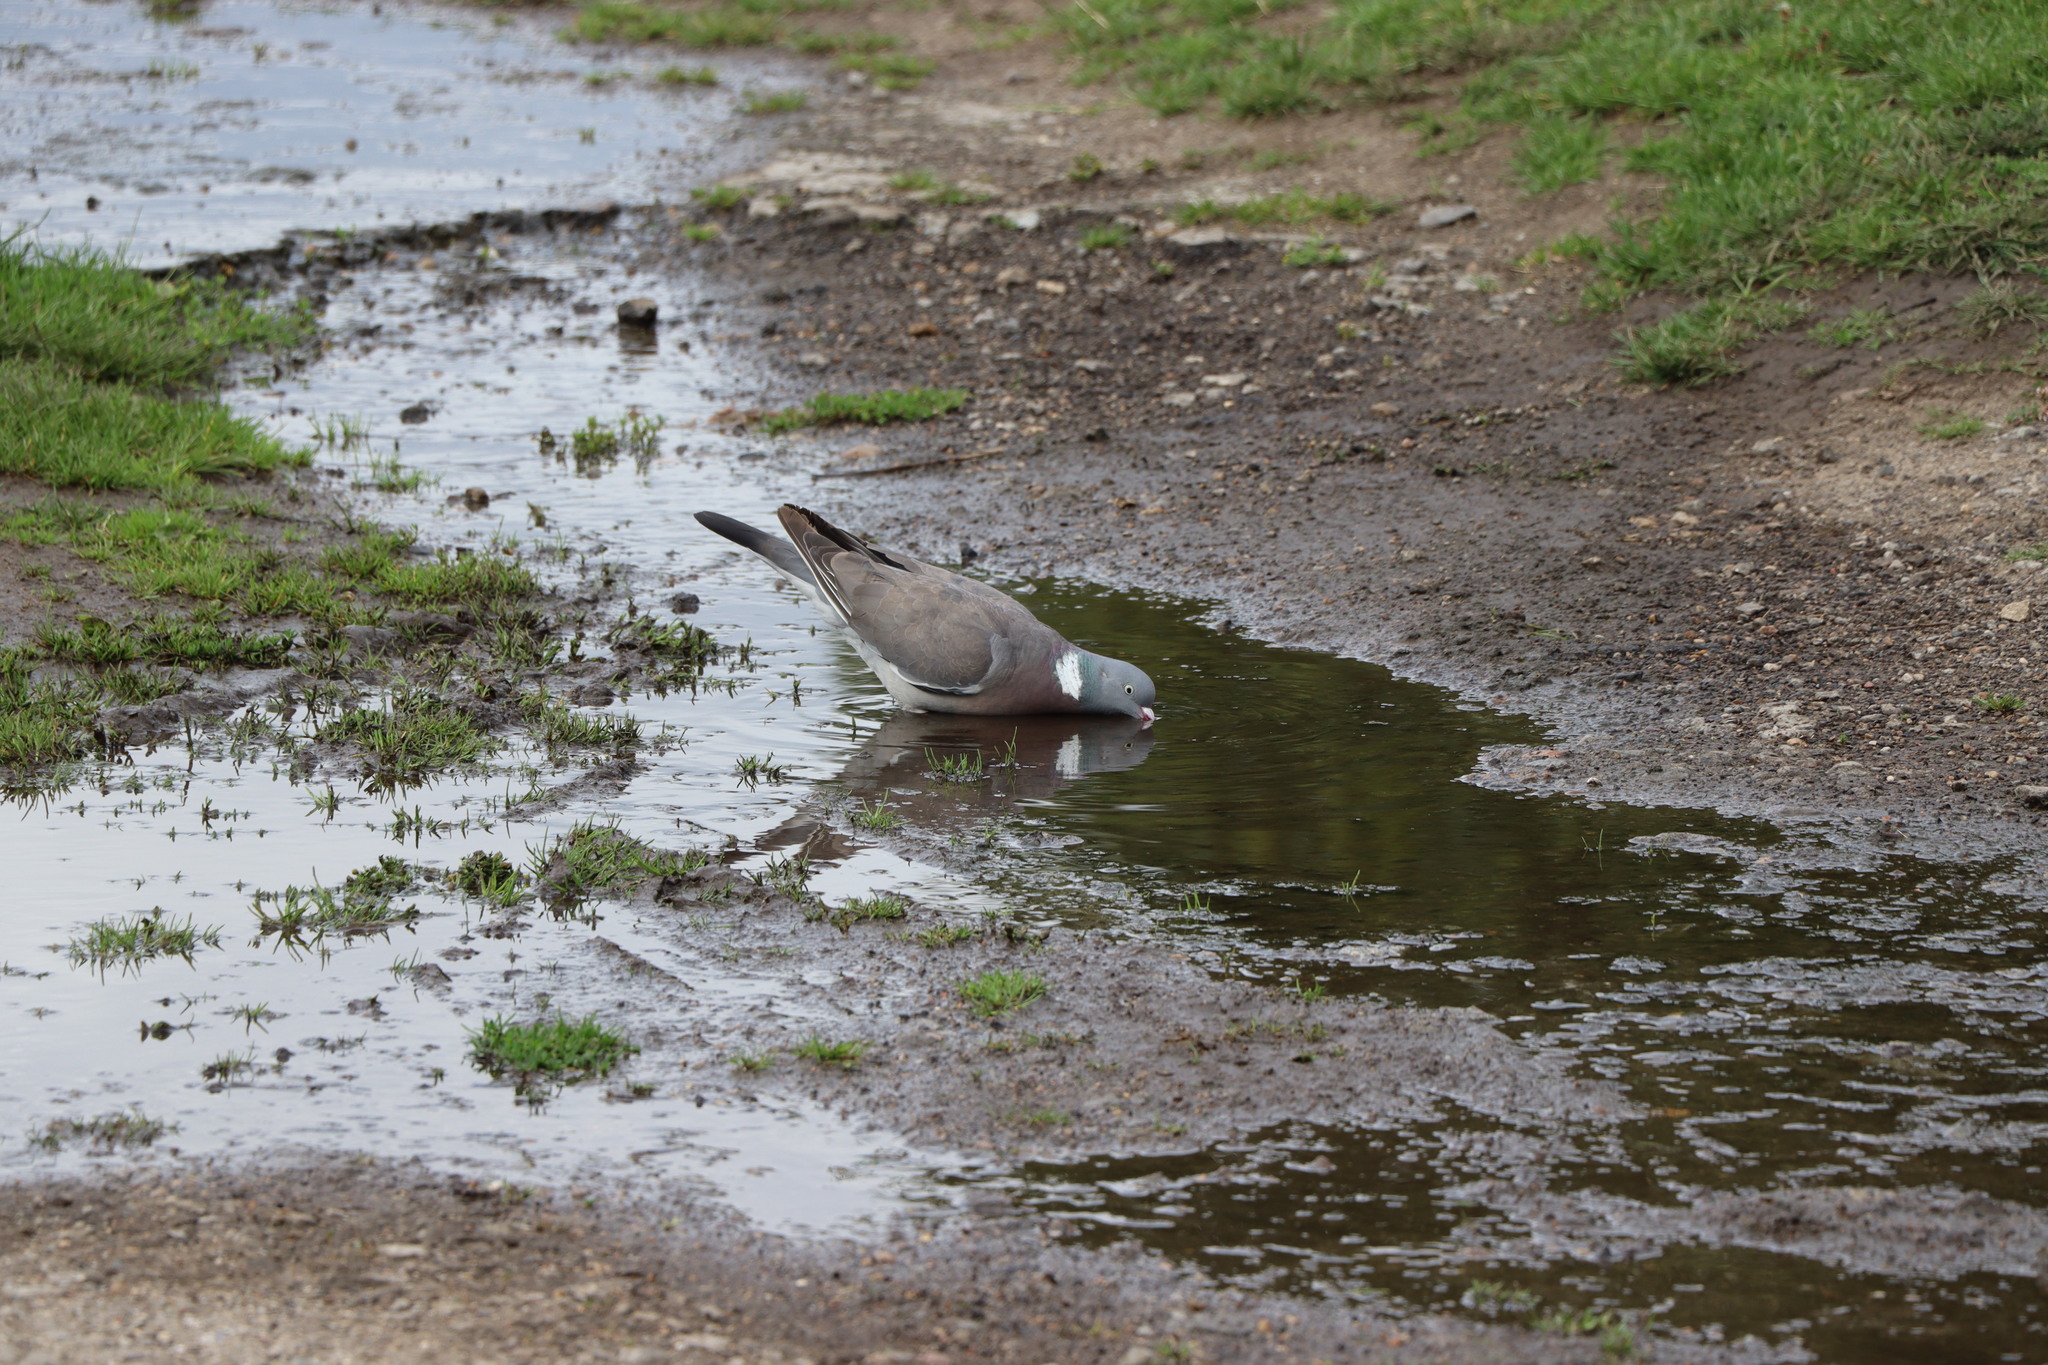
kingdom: Animalia
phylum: Chordata
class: Aves
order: Columbiformes
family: Columbidae
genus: Columba
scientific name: Columba palumbus
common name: Common wood pigeon
